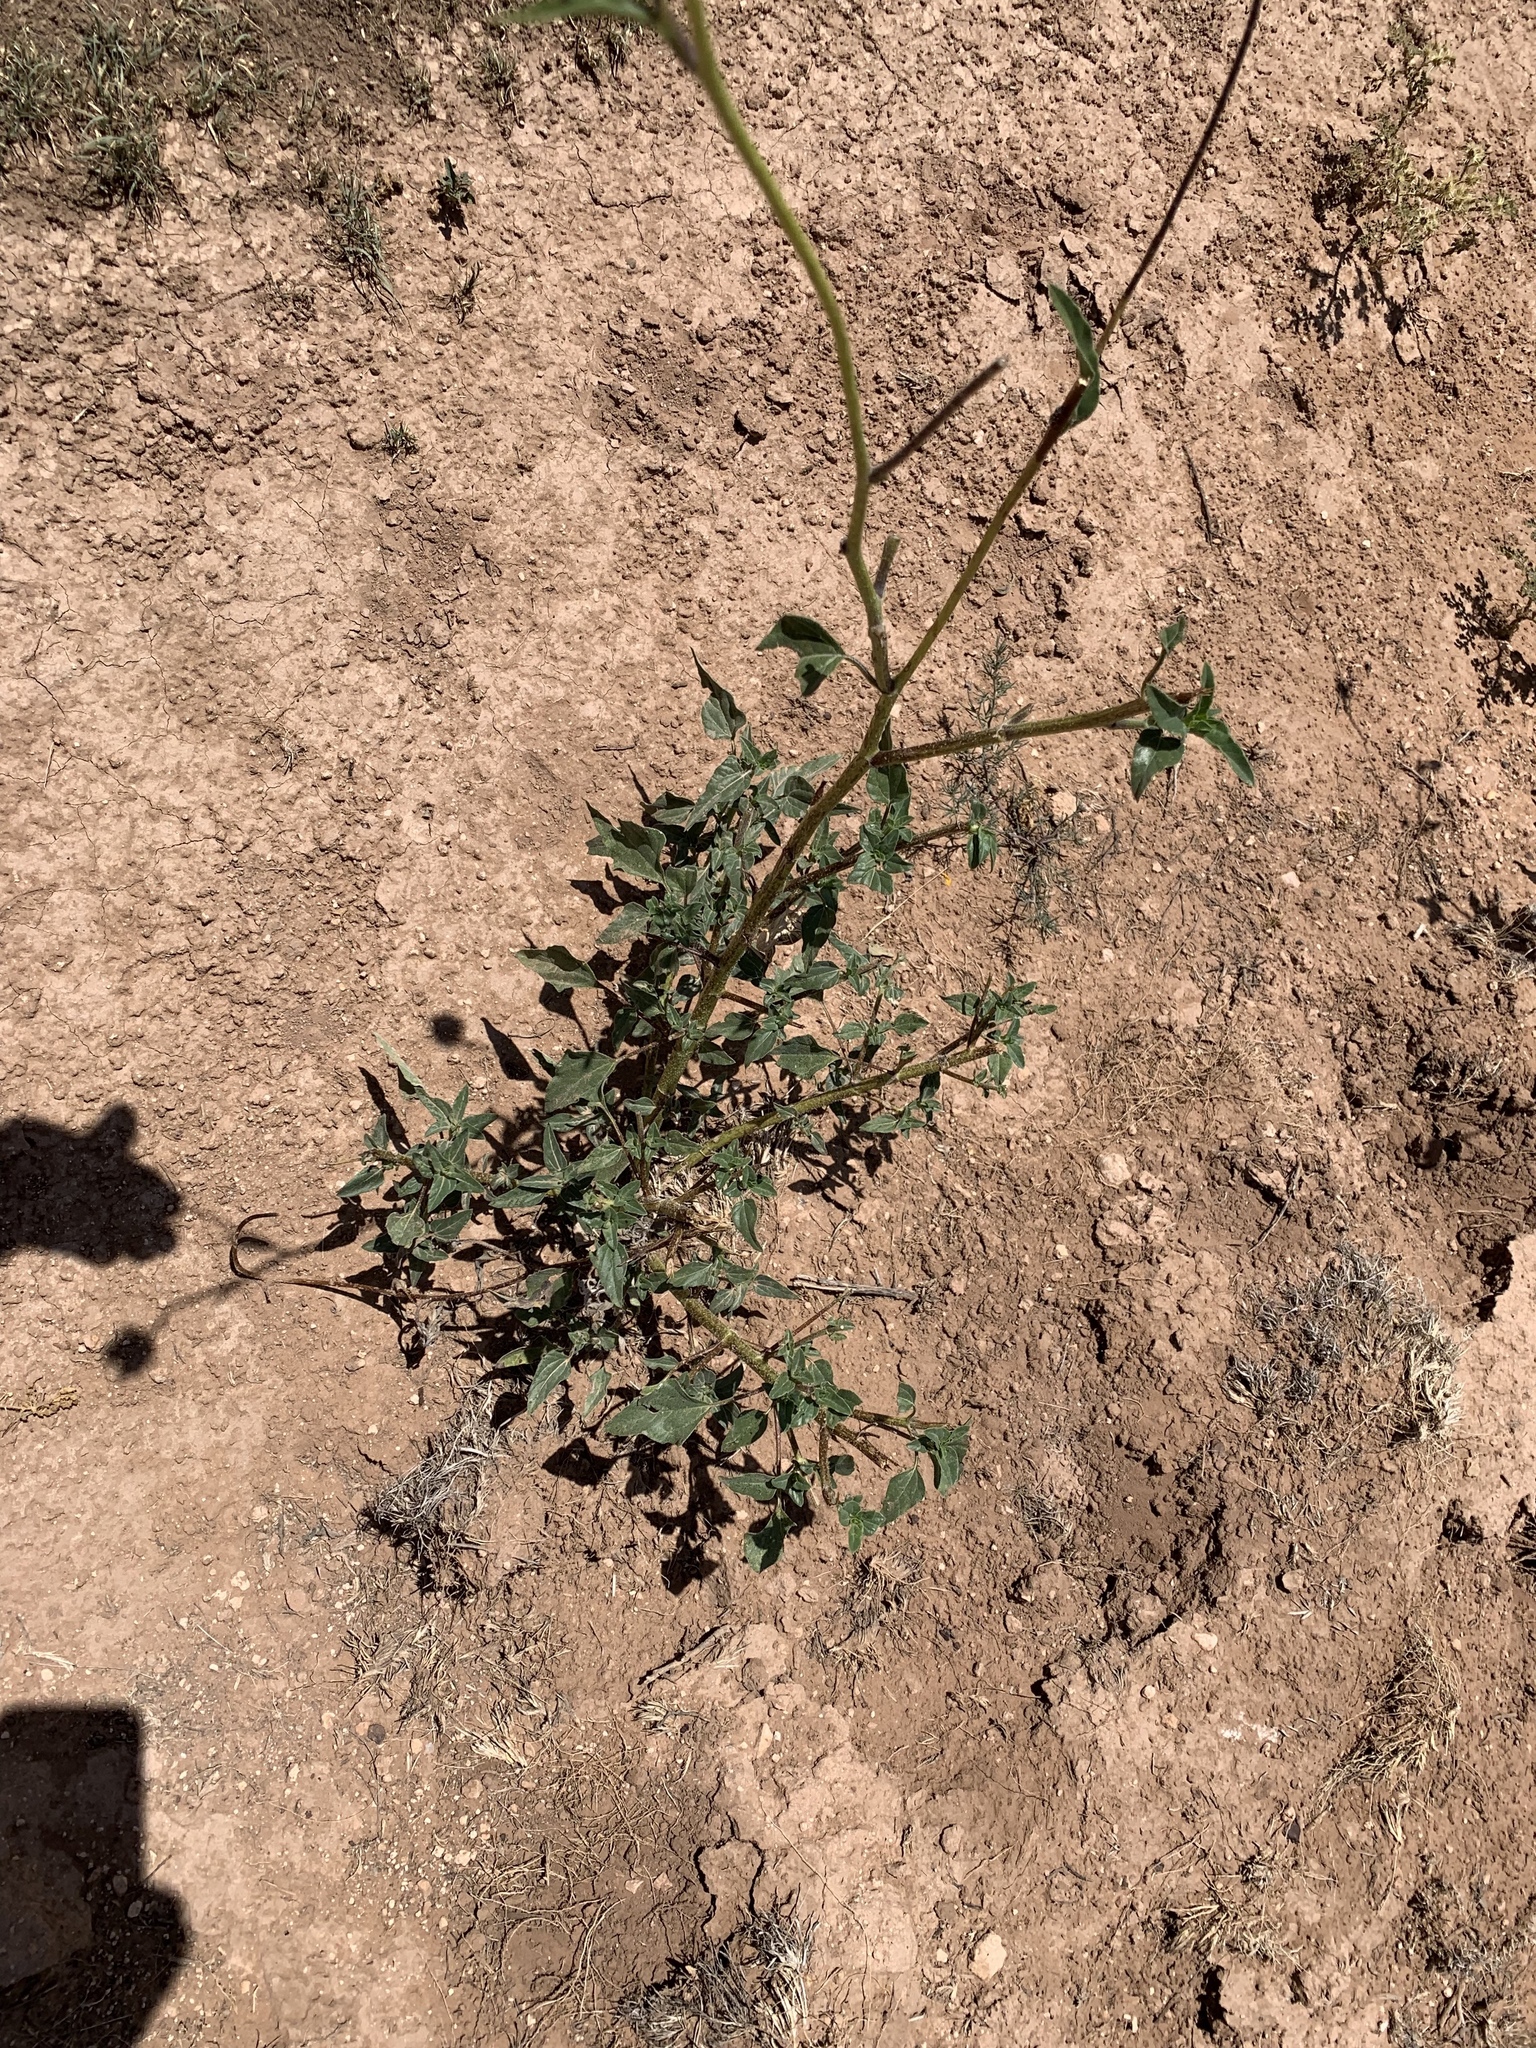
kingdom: Plantae
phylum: Tracheophyta
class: Magnoliopsida
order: Asterales
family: Asteraceae
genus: Helianthus
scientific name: Helianthus petiolaris
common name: Lesser sunflower
